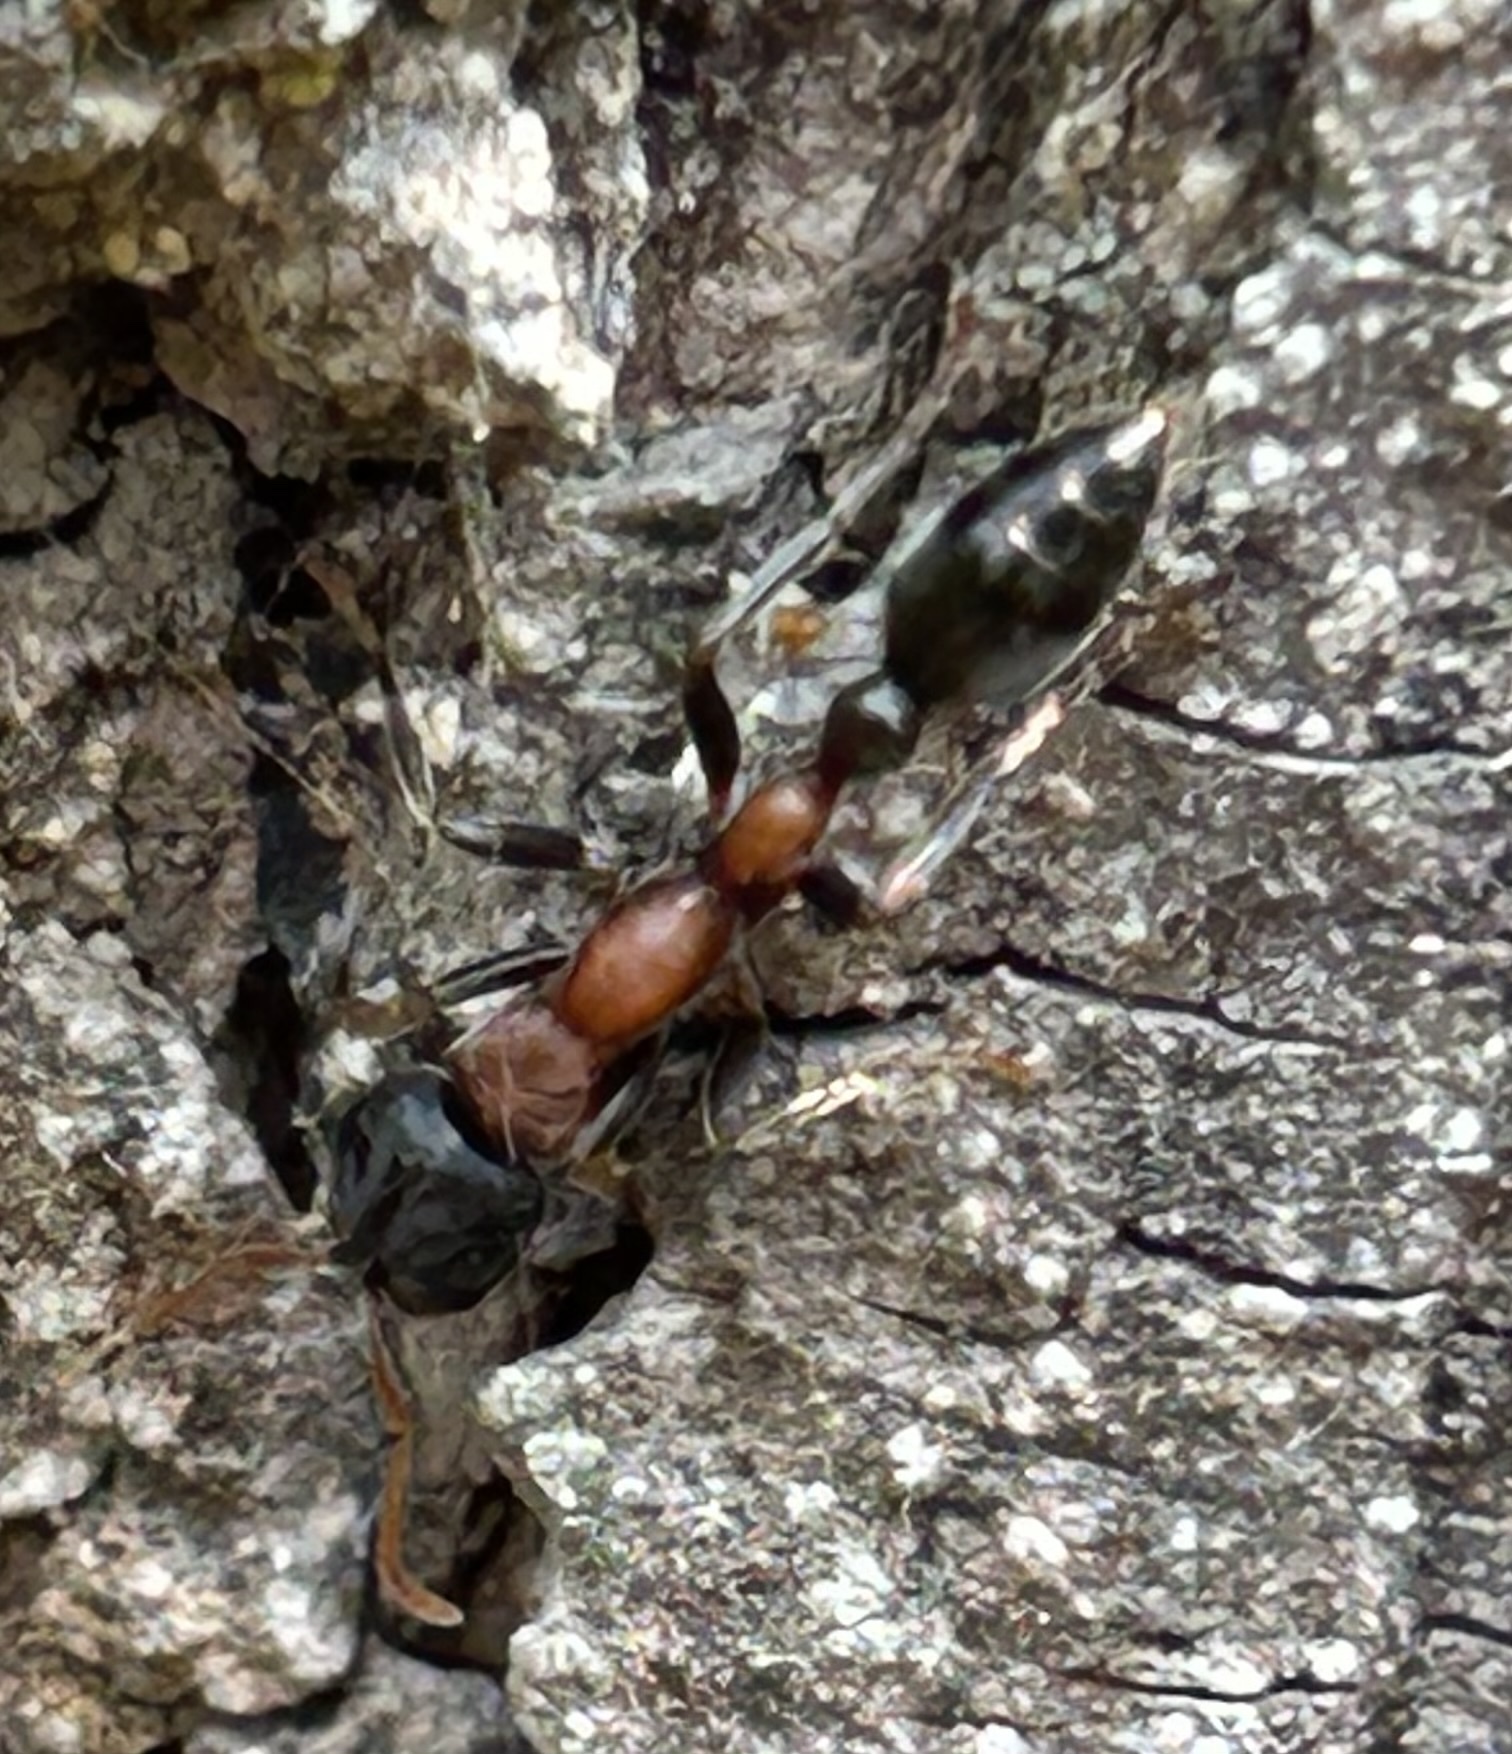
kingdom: Animalia
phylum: Arthropoda
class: Insecta
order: Hymenoptera
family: Formicidae
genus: Tetraponera
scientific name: Tetraponera rufonigra
